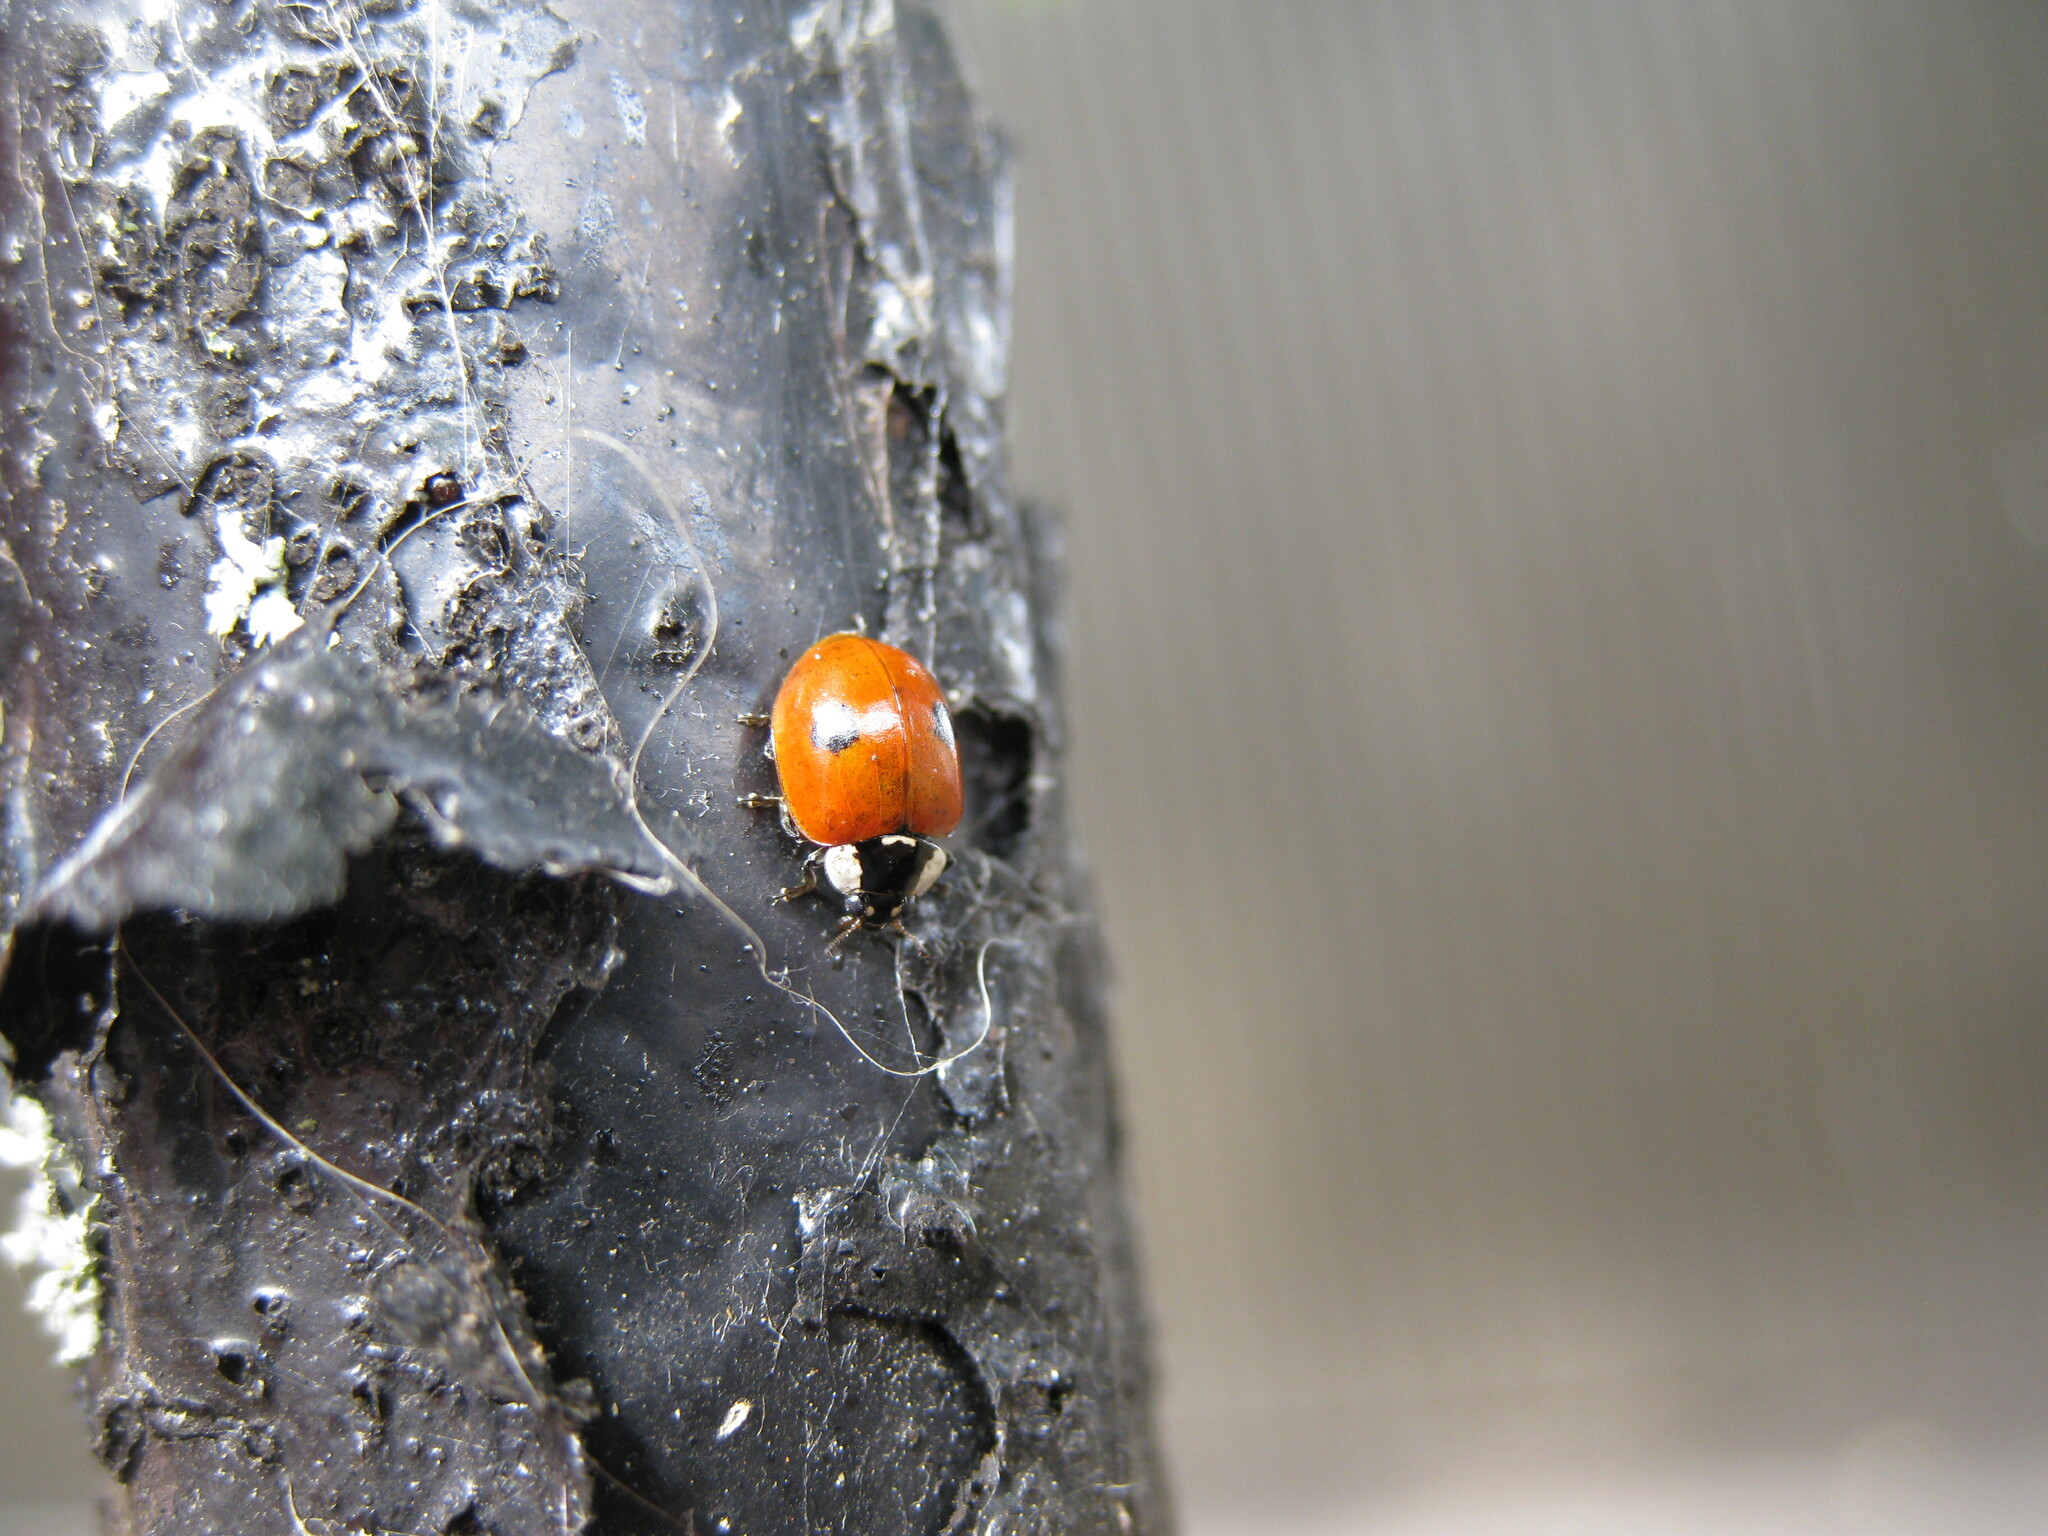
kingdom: Animalia
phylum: Arthropoda
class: Insecta
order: Coleoptera
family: Coccinellidae
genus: Adalia
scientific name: Adalia bipunctata
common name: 2-spot ladybird
